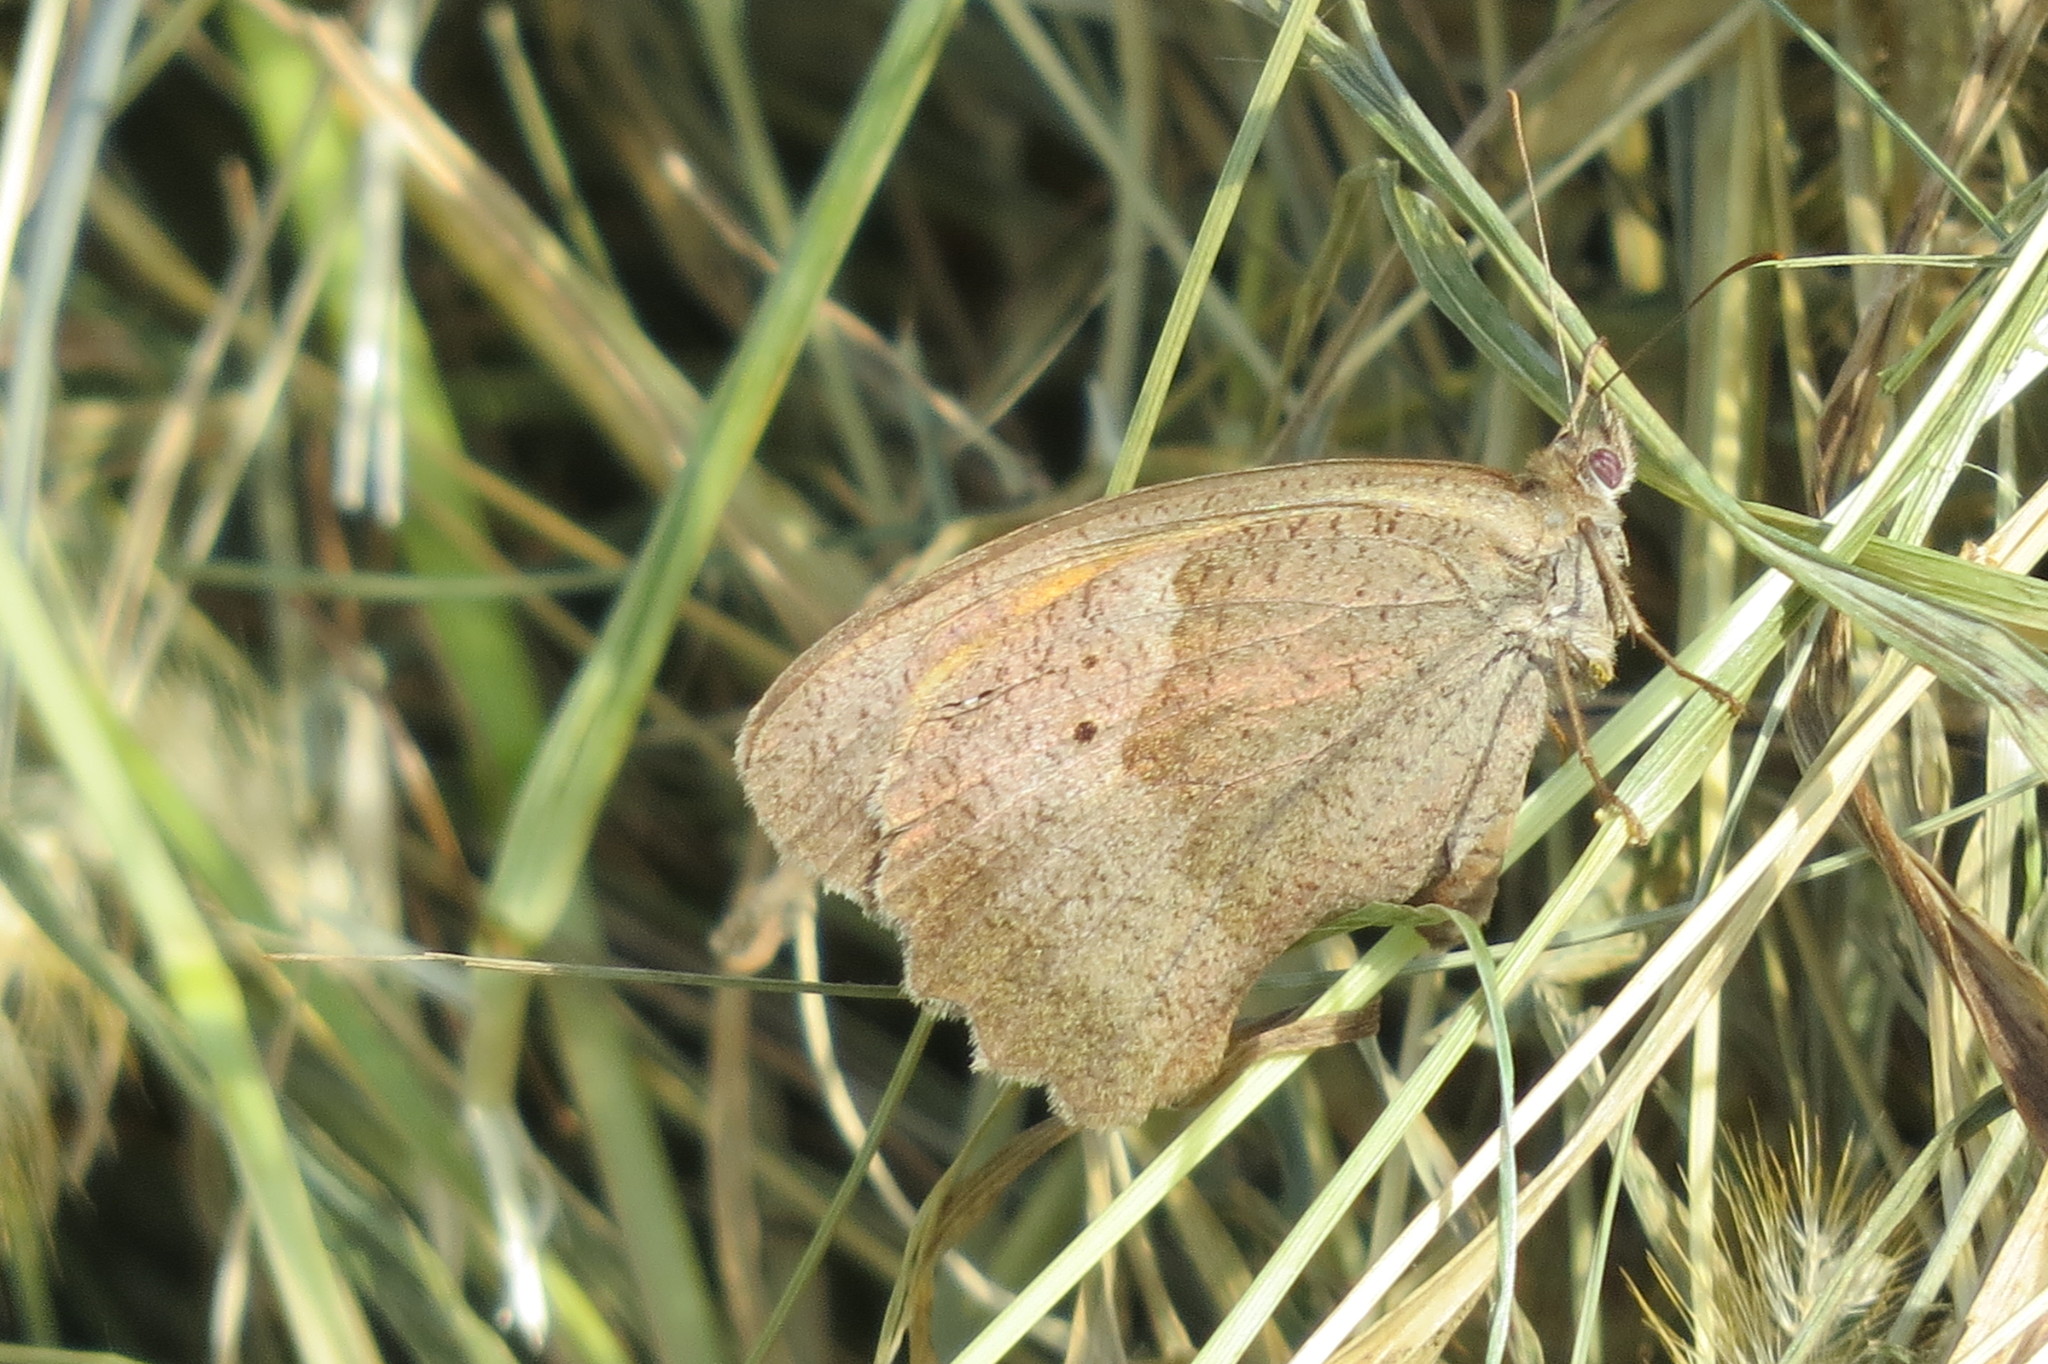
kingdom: Animalia
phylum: Arthropoda
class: Insecta
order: Lepidoptera
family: Nymphalidae
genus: Maniola
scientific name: Maniola jurtina
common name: Meadow brown
